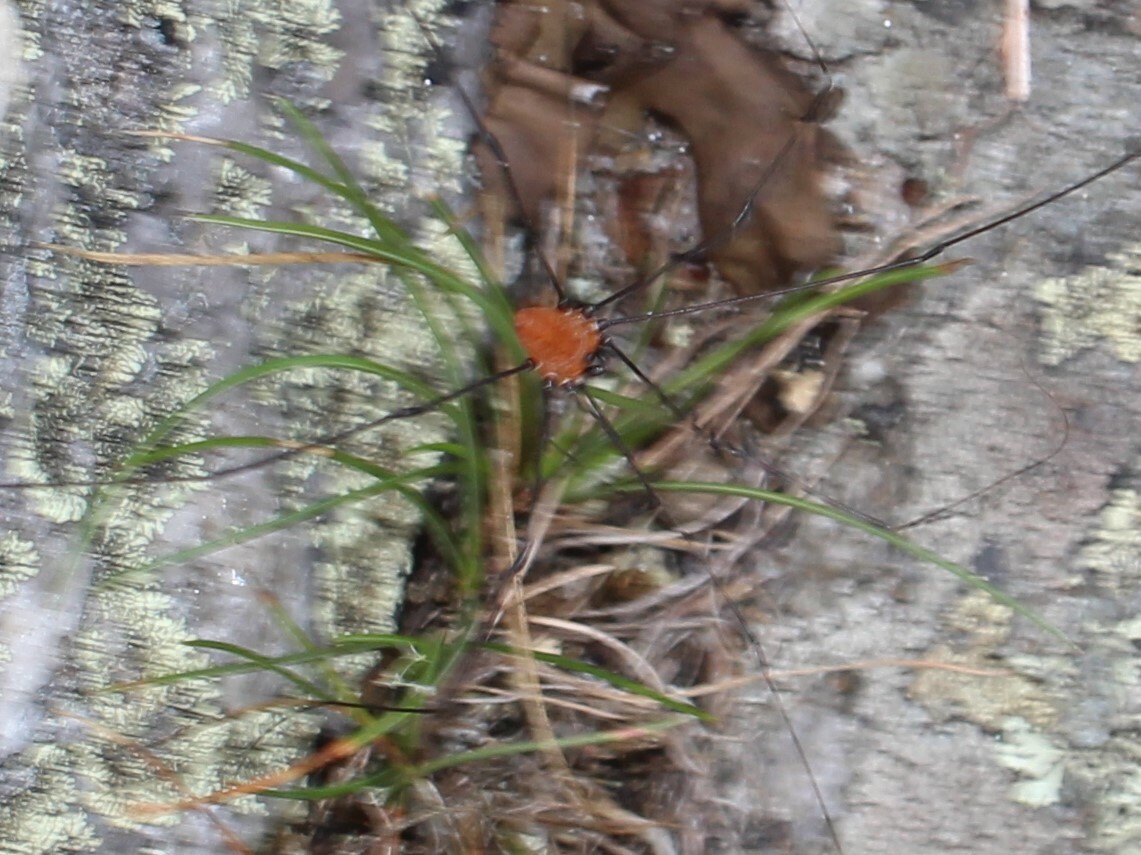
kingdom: Animalia
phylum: Arthropoda
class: Arachnida
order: Opiliones
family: Sclerosomatidae
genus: Leiobunum
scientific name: Leiobunum nigropalpi
